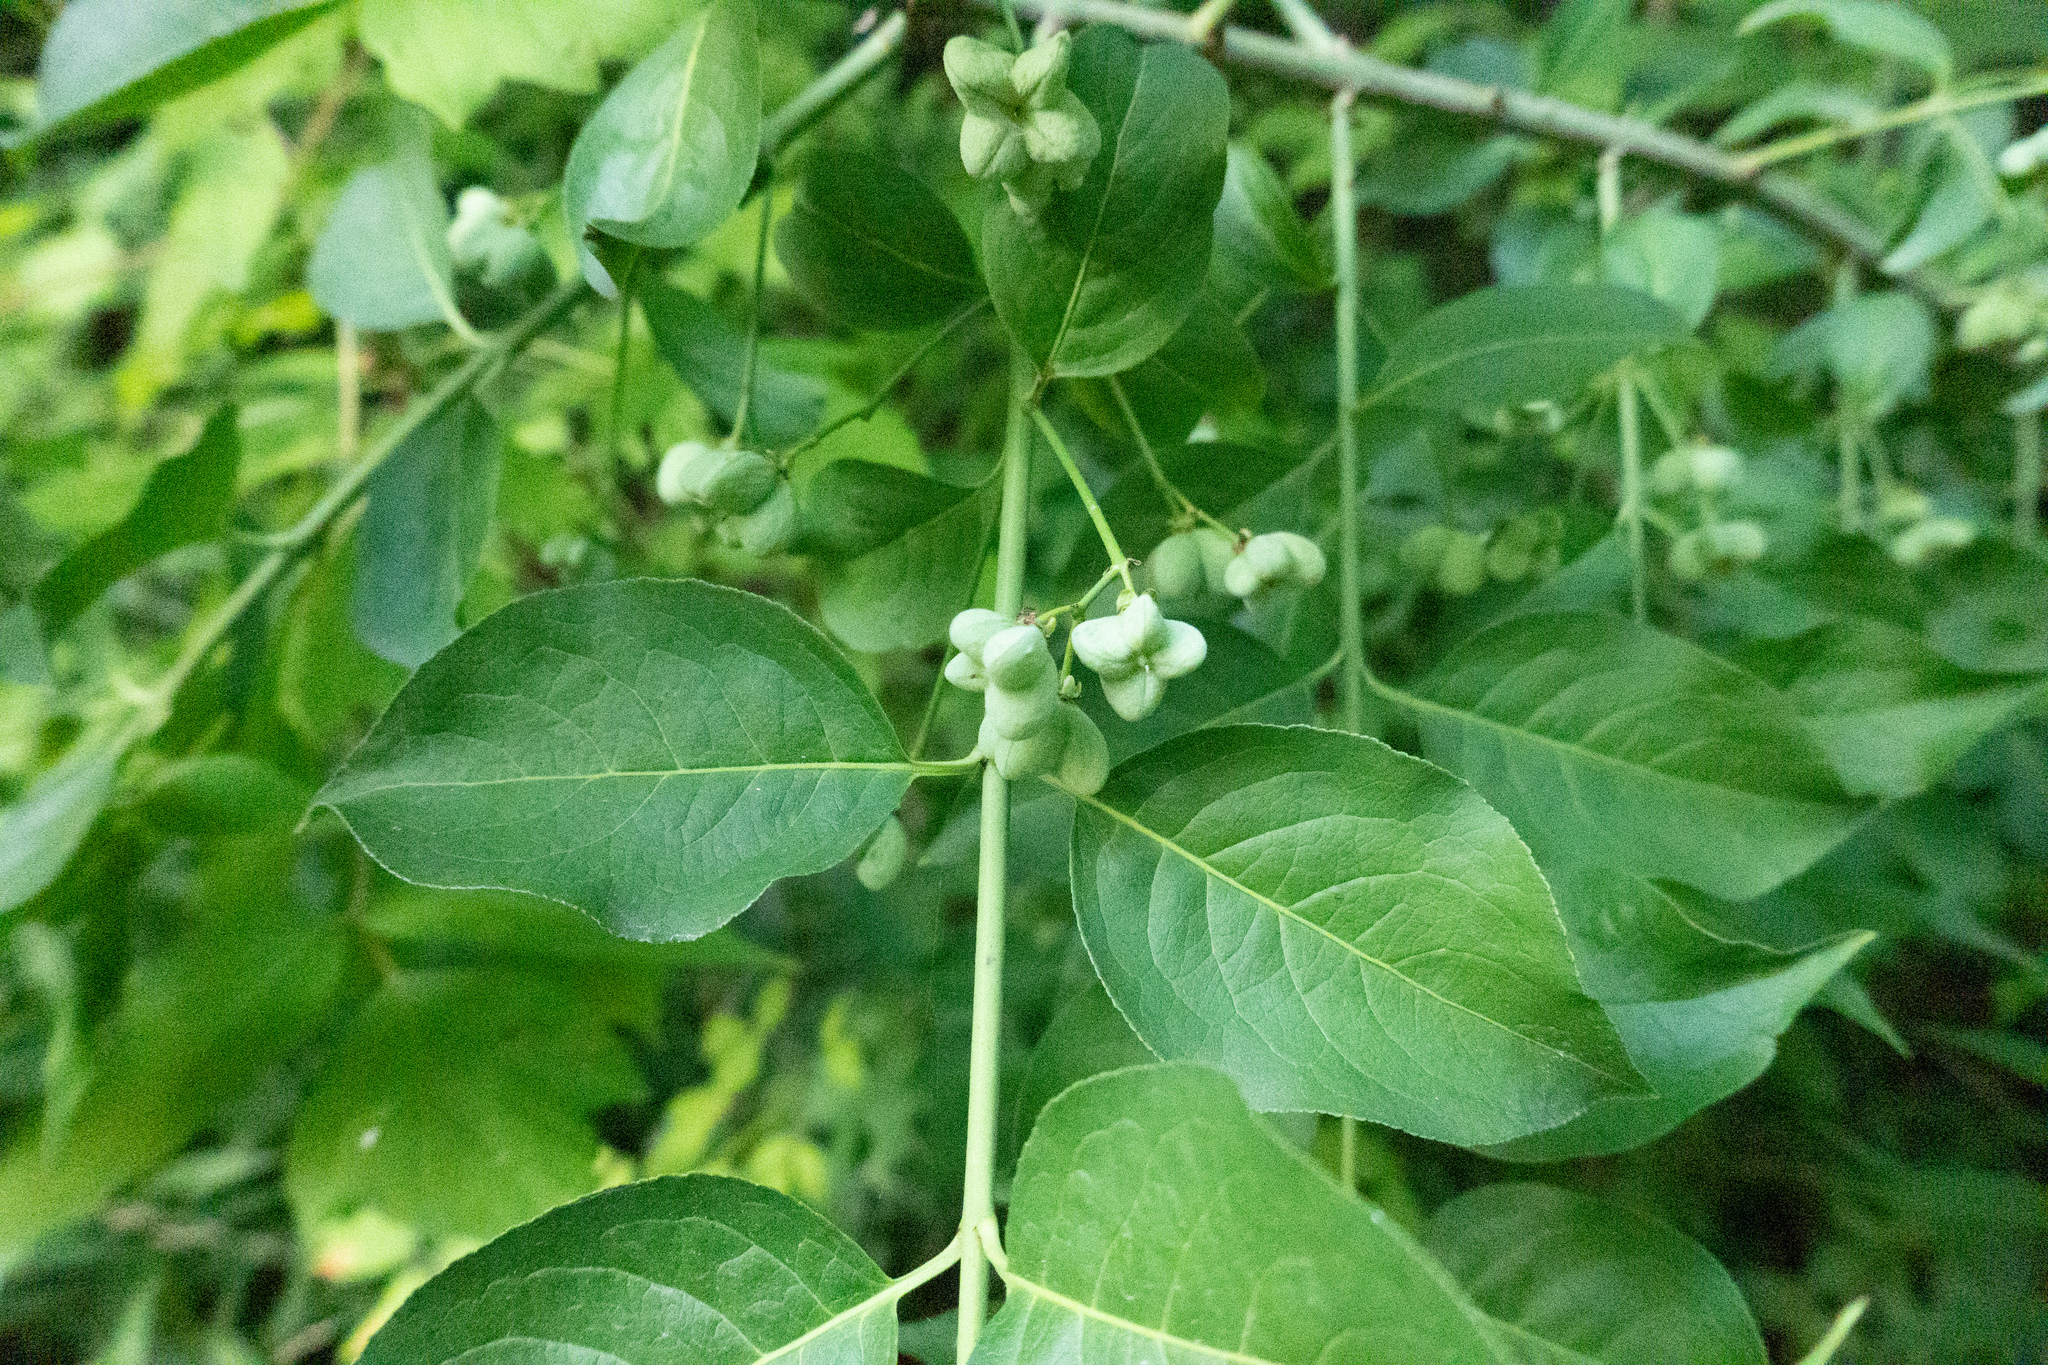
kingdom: Plantae
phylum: Tracheophyta
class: Magnoliopsida
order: Celastrales
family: Celastraceae
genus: Euonymus
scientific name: Euonymus europaeus
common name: Spindle
